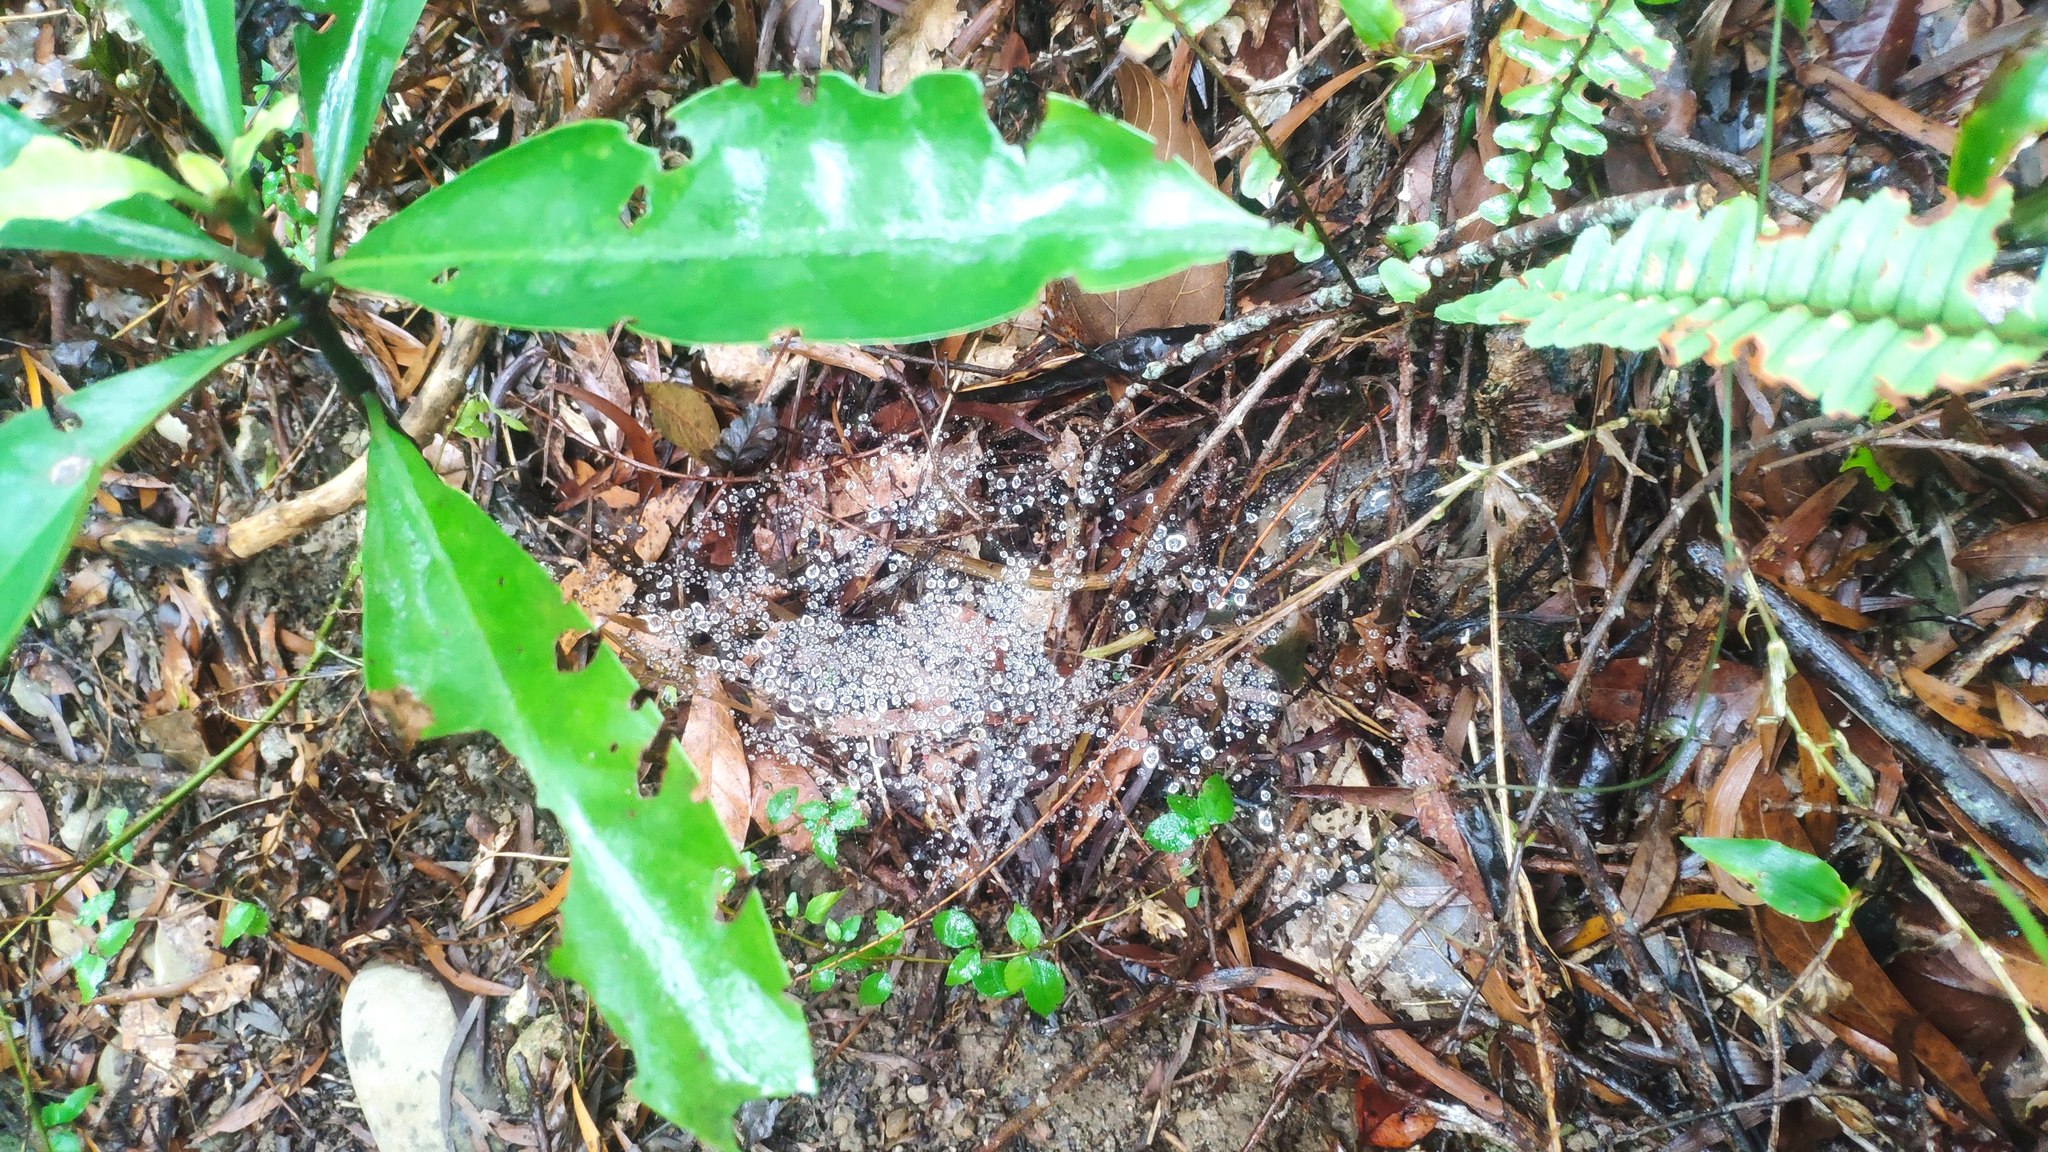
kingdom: Plantae
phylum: Tracheophyta
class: Magnoliopsida
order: Gentianales
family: Rubiaceae
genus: Psychotria
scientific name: Psychotria asiatica
